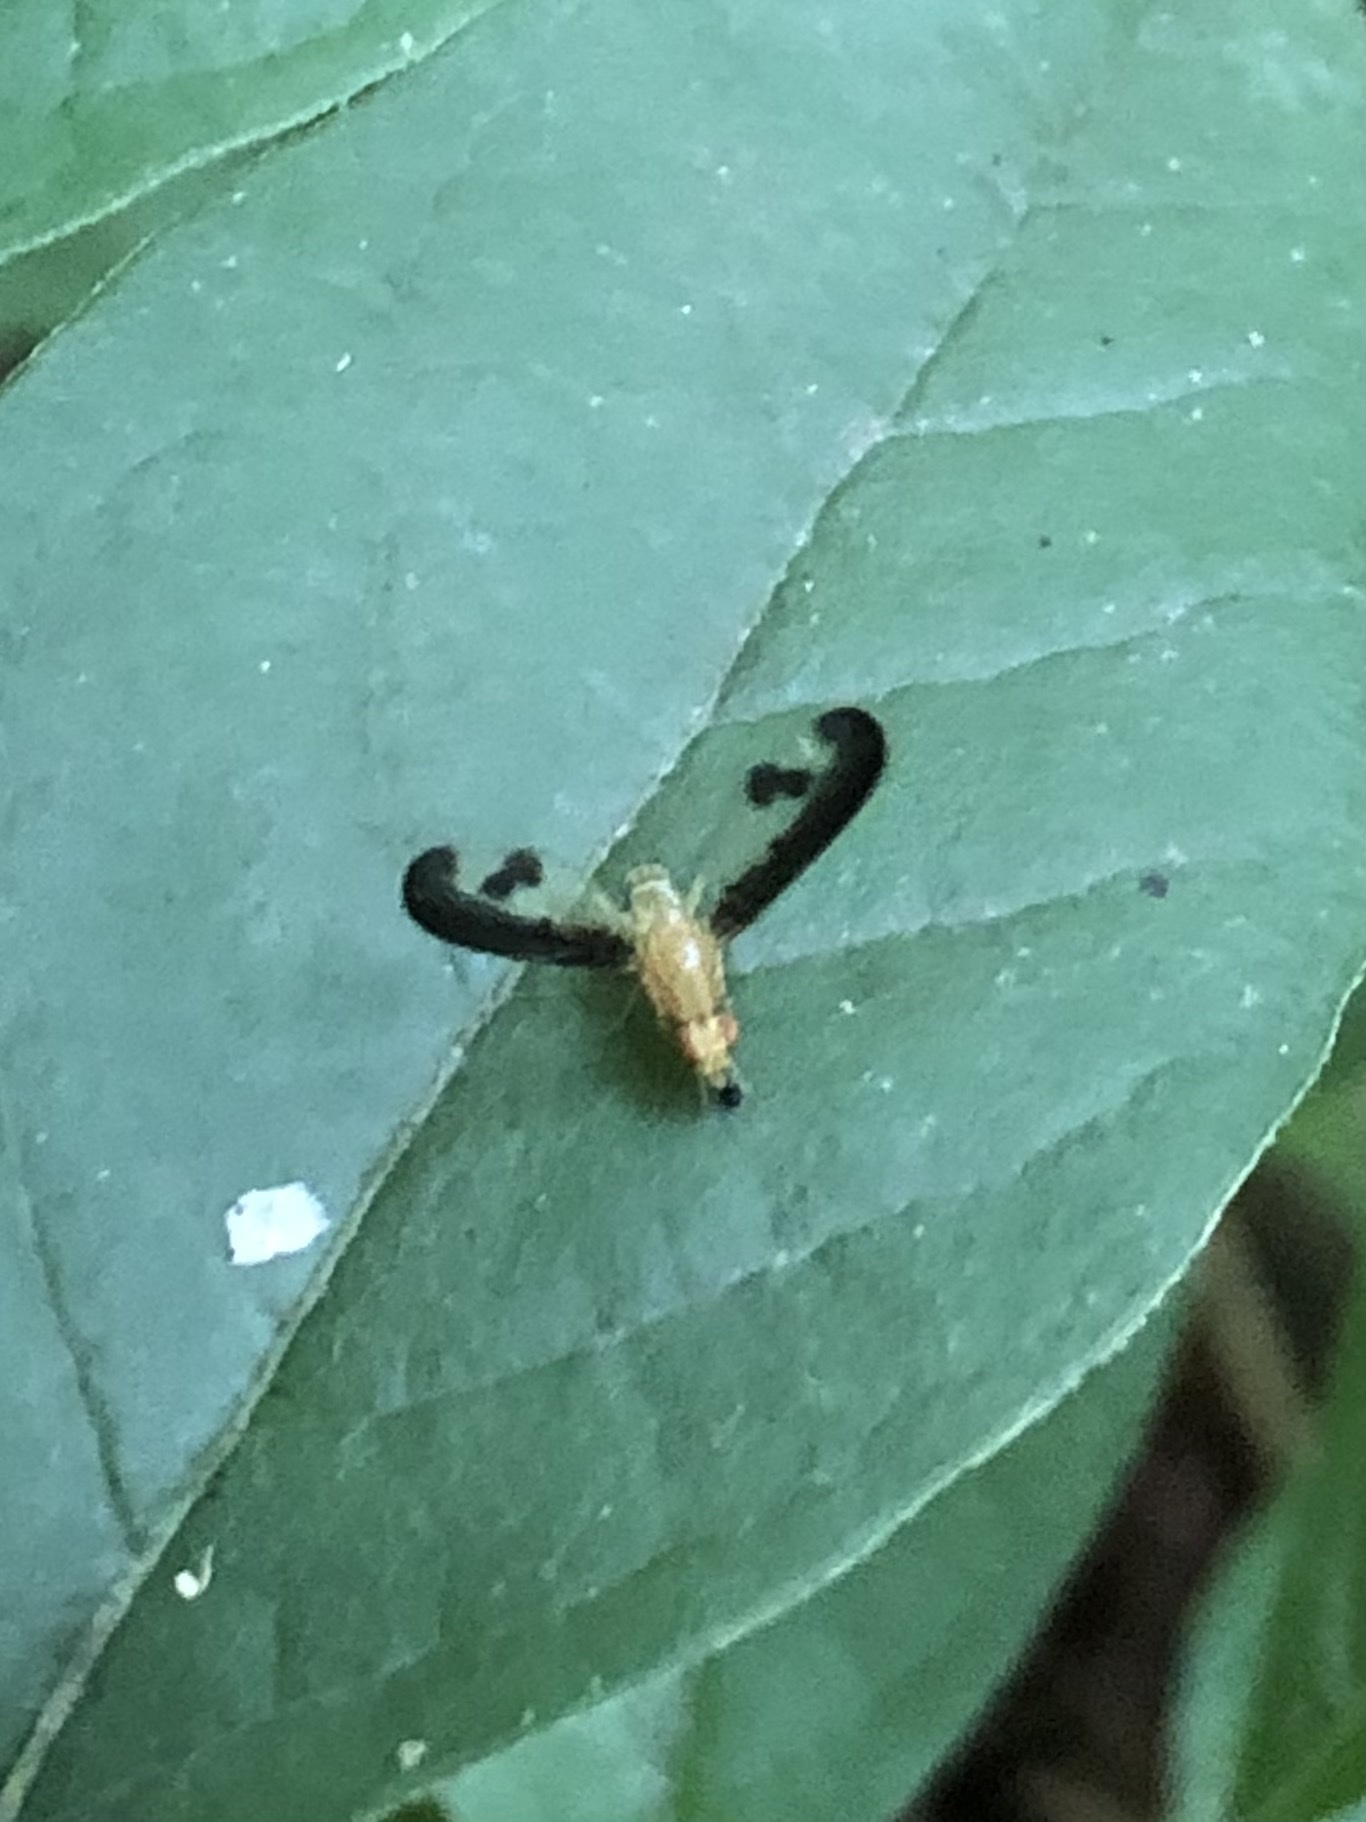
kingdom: Animalia
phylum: Arthropoda
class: Insecta
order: Diptera
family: Pallopteridae
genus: Toxonevra
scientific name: Toxonevra superba
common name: Antlered flutter fly
